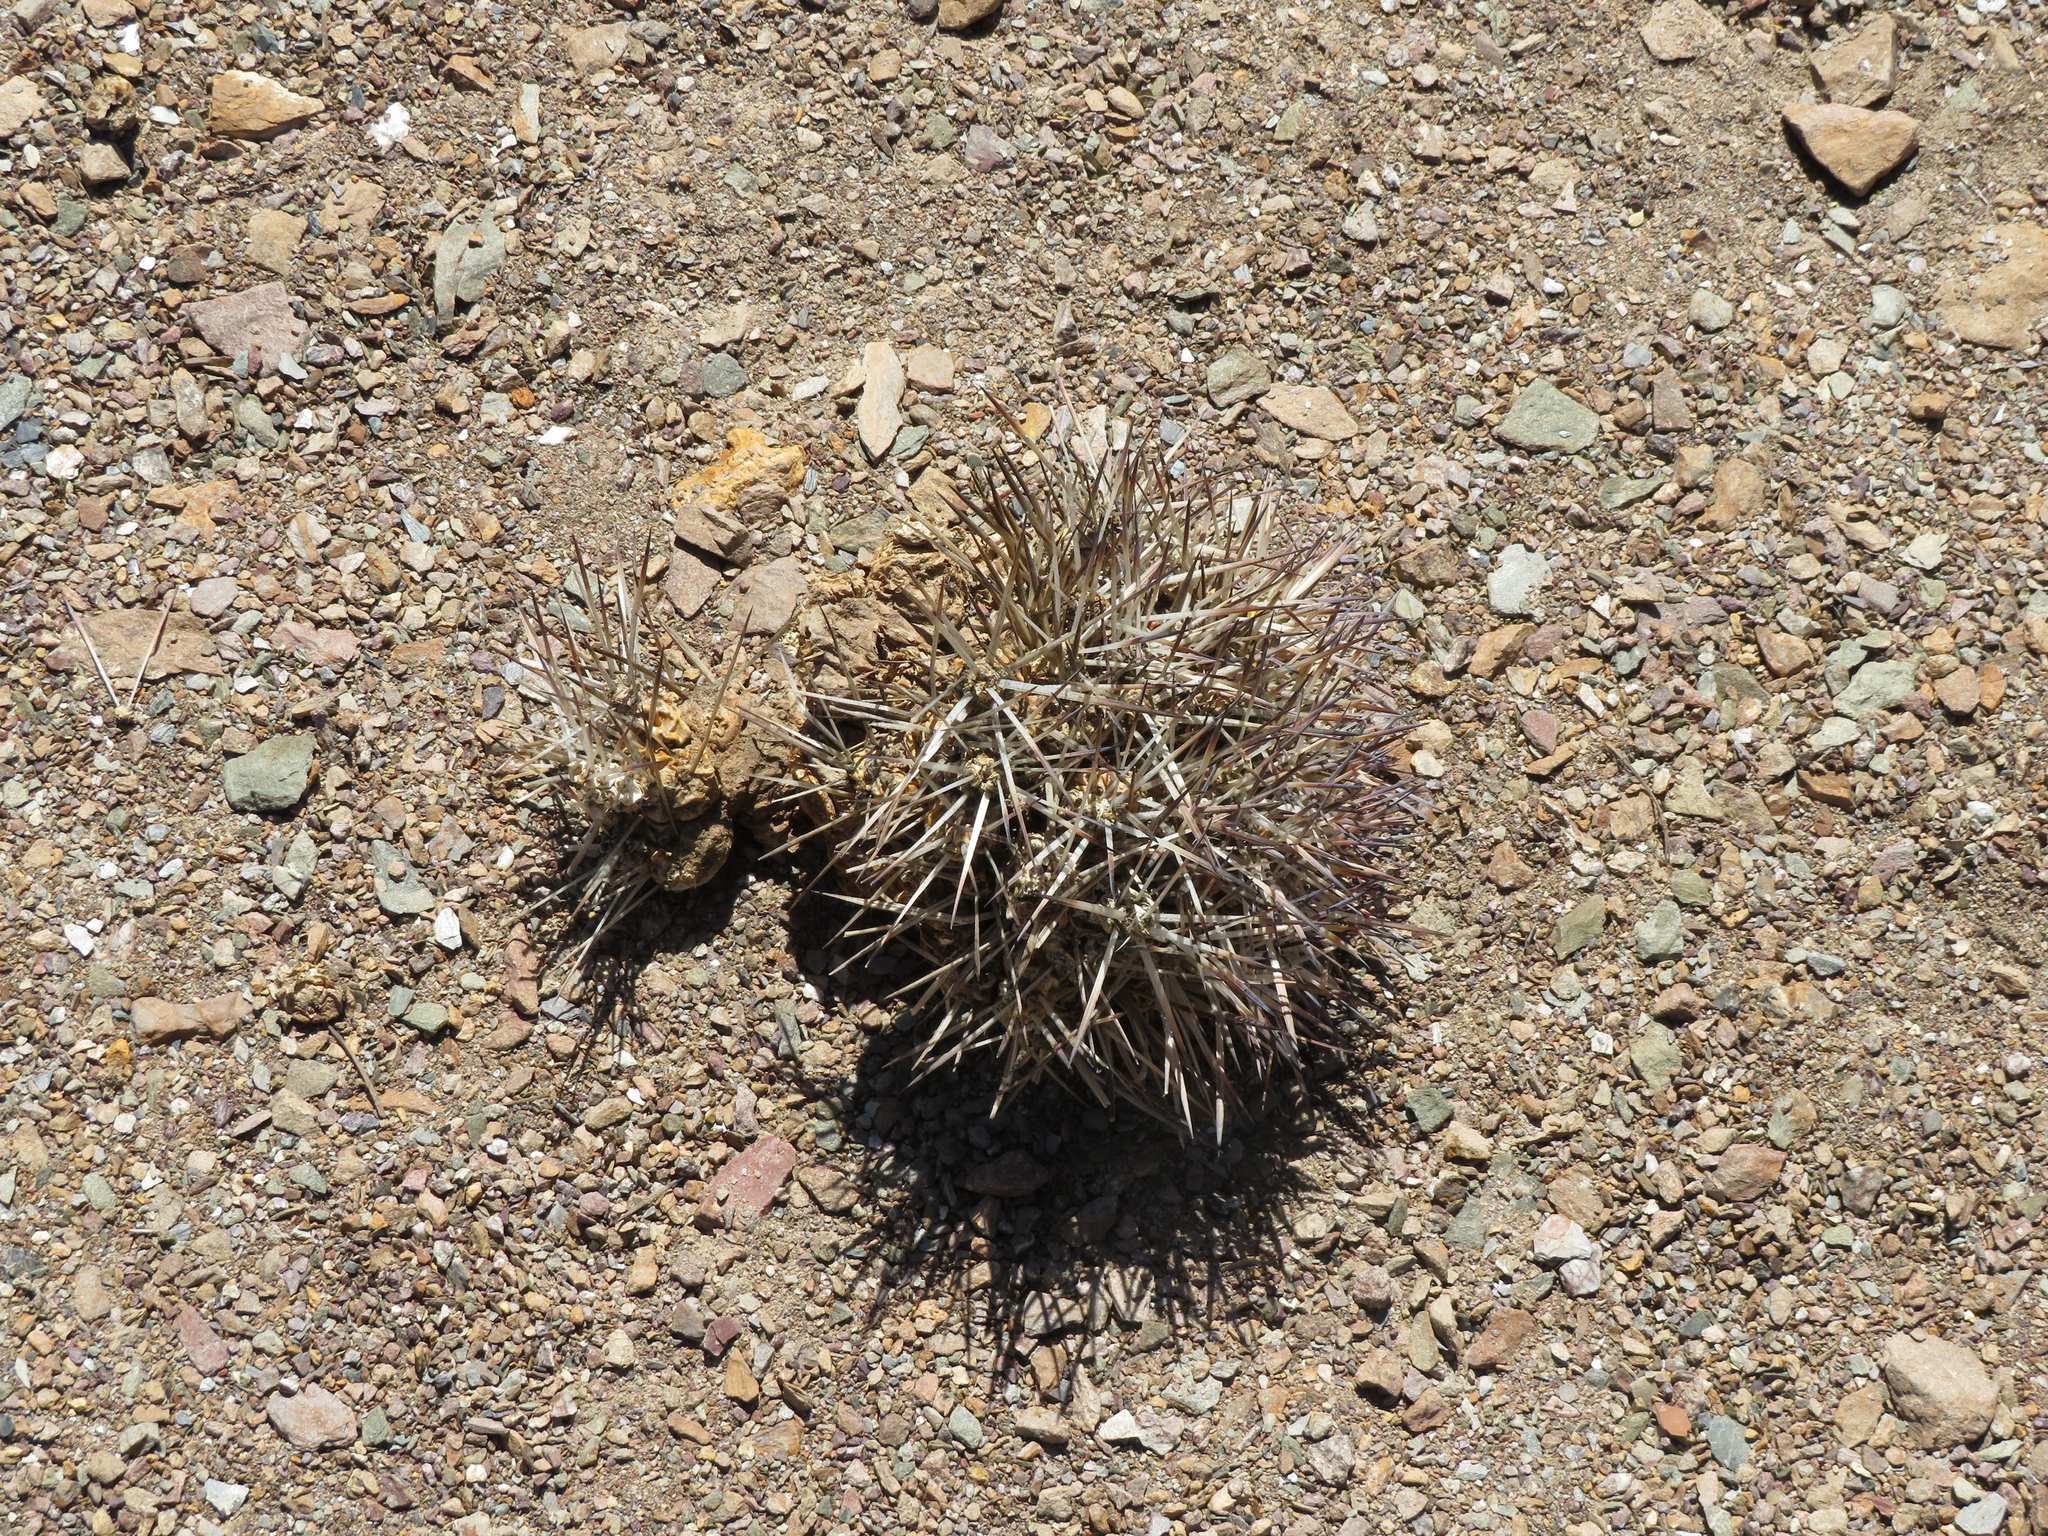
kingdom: Plantae
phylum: Tracheophyta
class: Magnoliopsida
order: Caryophyllales
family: Cactaceae
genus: Maihueniopsis
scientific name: Maihueniopsis glomerata
